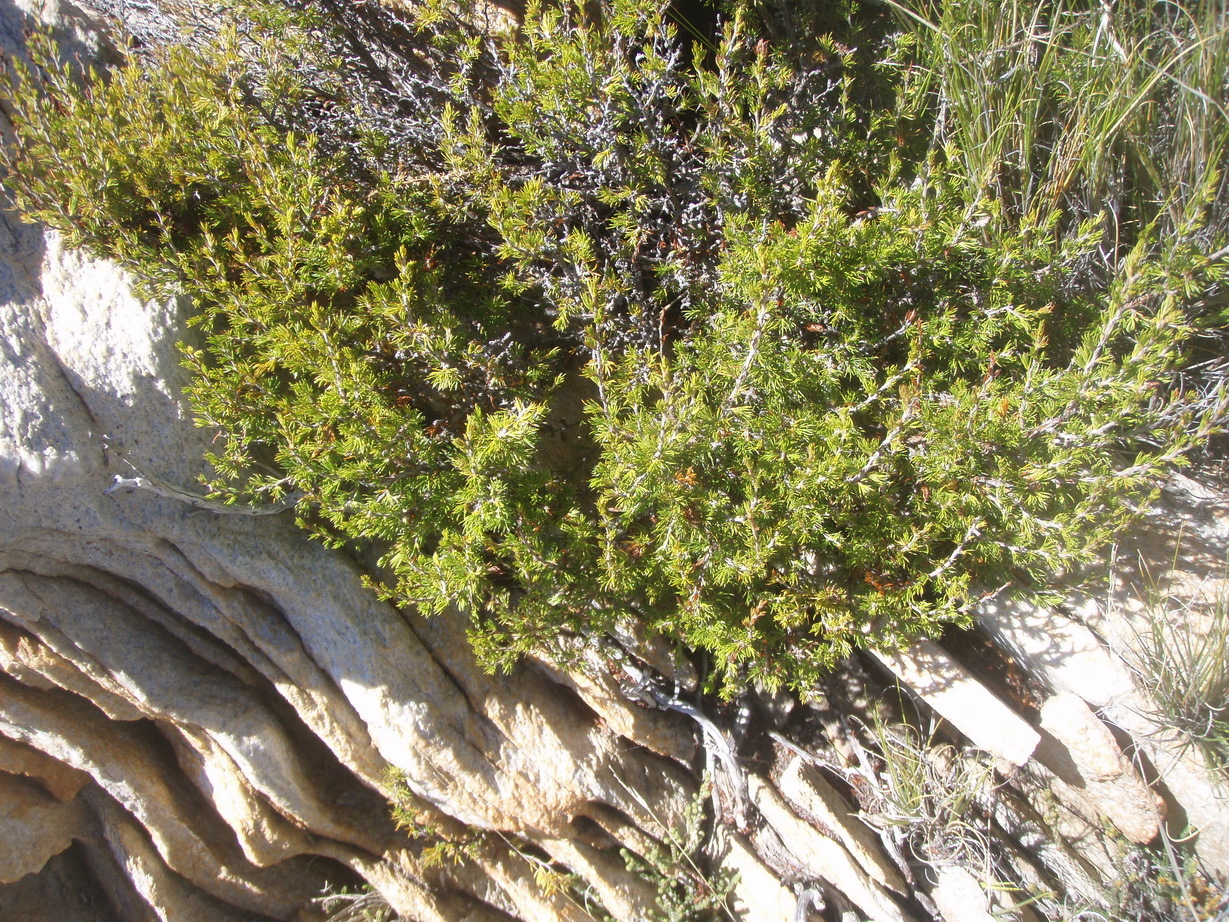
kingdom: Plantae
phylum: Tracheophyta
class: Magnoliopsida
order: Rosales
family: Rosaceae
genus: Cliffortia
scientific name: Cliffortia neglecta
